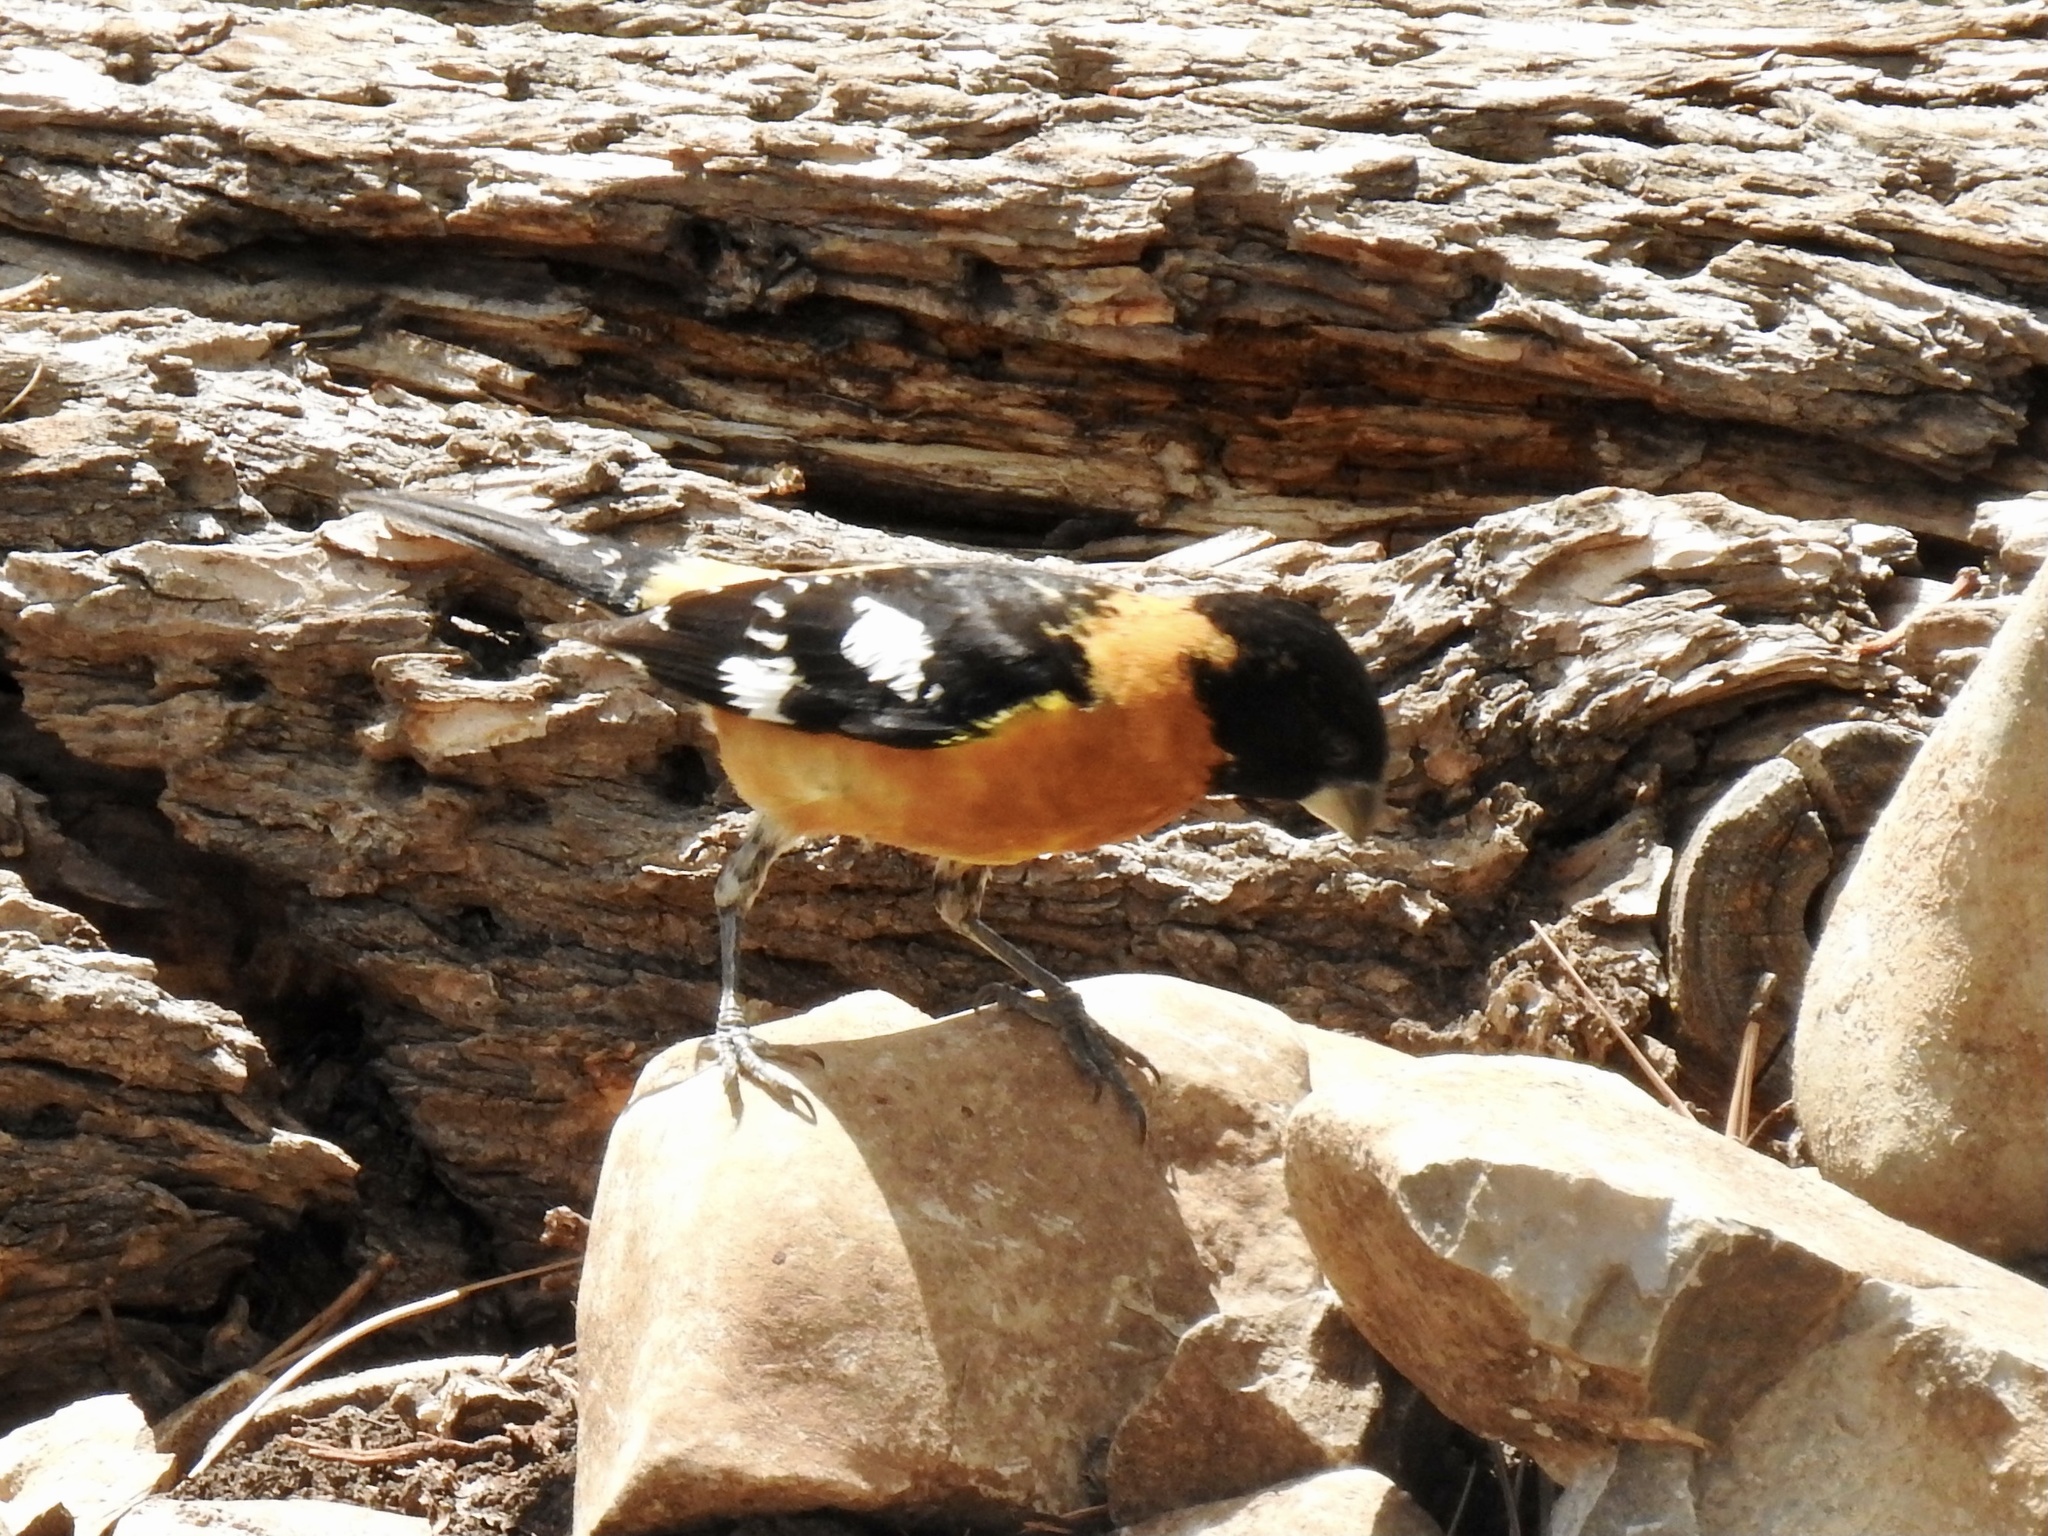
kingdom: Animalia
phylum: Chordata
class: Aves
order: Passeriformes
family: Cardinalidae
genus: Pheucticus
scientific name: Pheucticus melanocephalus
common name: Black-headed grosbeak
